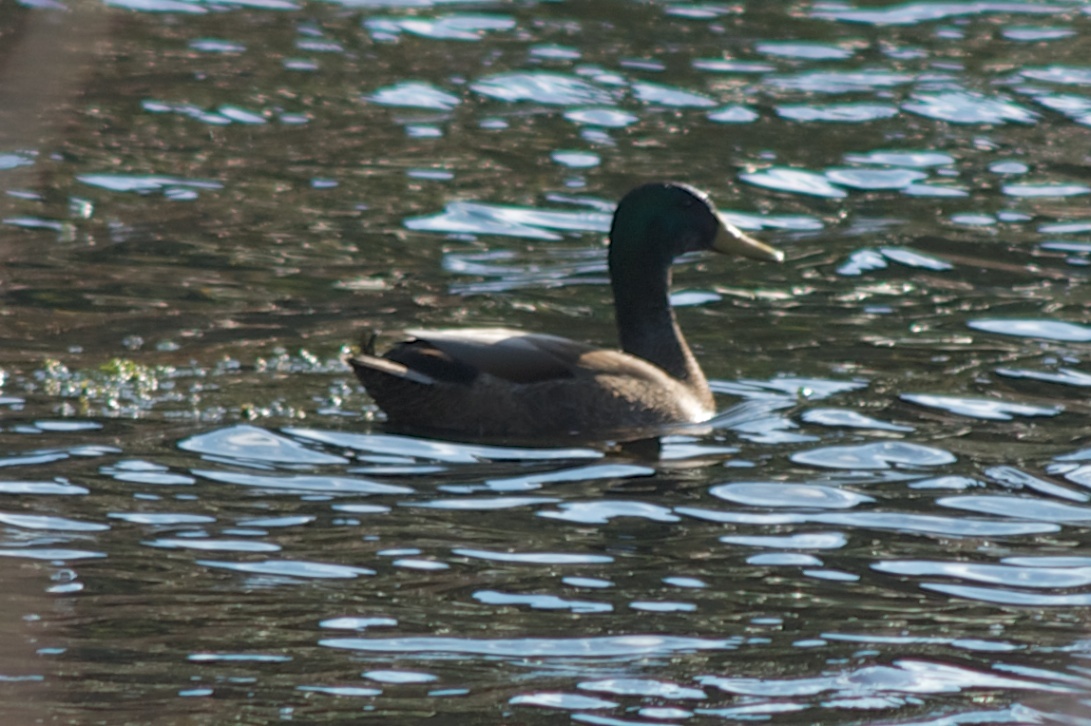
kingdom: Animalia
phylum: Chordata
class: Aves
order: Anseriformes
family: Anatidae
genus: Anas
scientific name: Anas platyrhynchos
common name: Mallard
